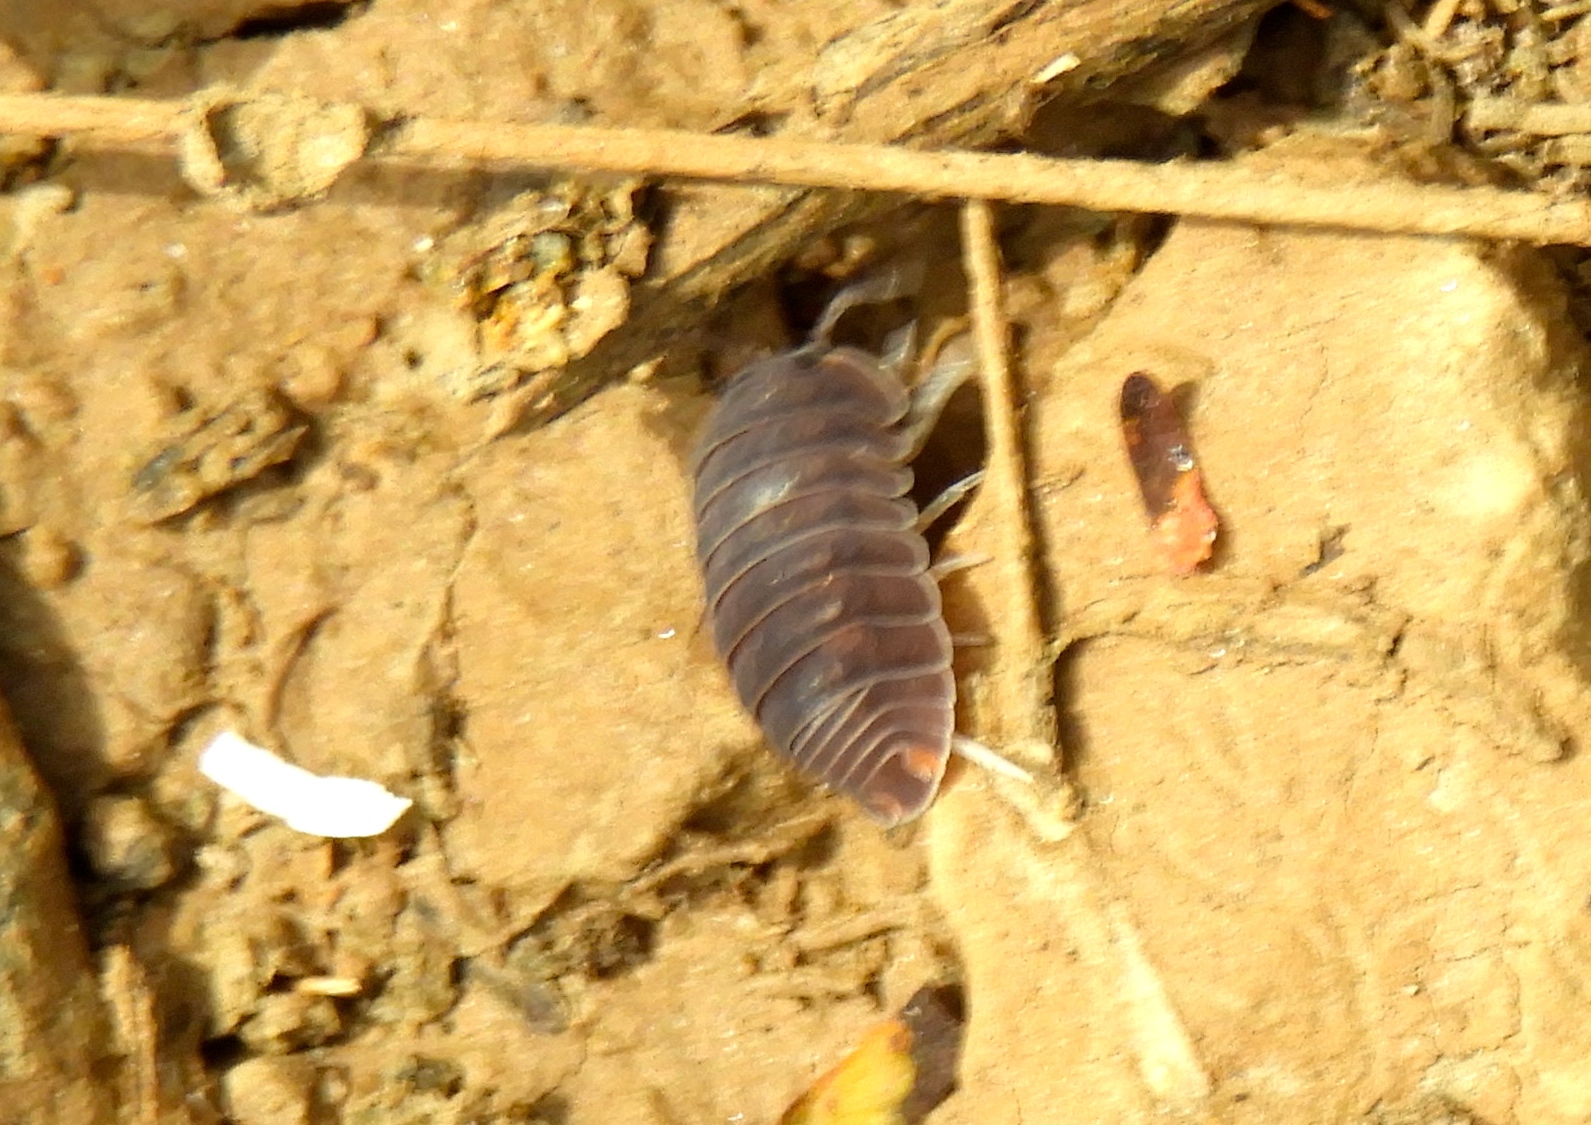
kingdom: Animalia
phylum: Arthropoda
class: Malacostraca
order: Isopoda
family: Armadillidae
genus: Cubaris
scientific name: Cubaris murina
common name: Pillbug
